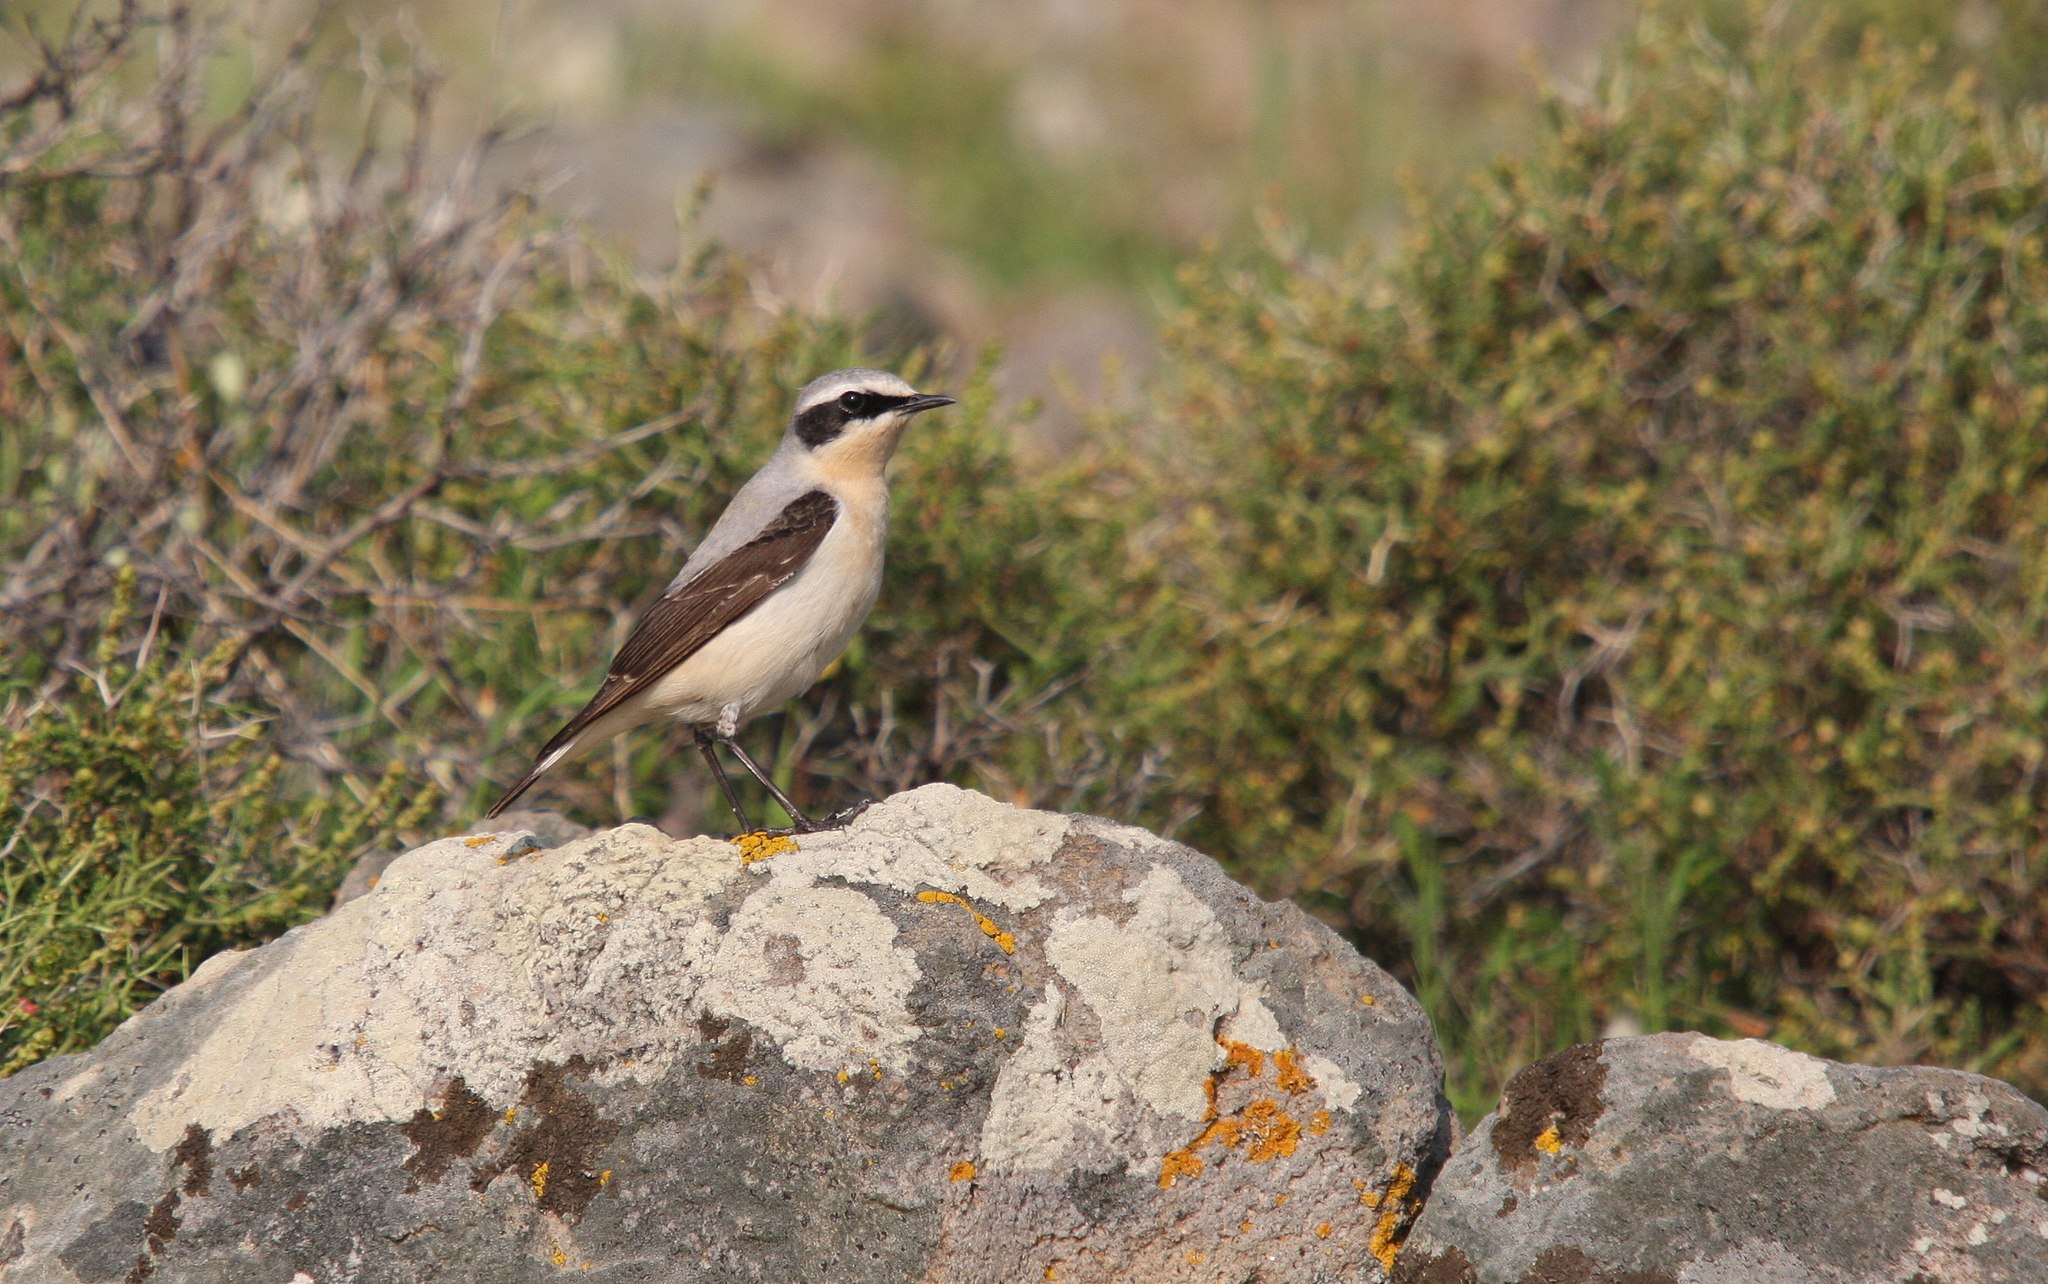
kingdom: Animalia
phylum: Chordata
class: Aves
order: Passeriformes
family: Muscicapidae
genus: Oenanthe
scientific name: Oenanthe oenanthe
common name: Northern wheatear
